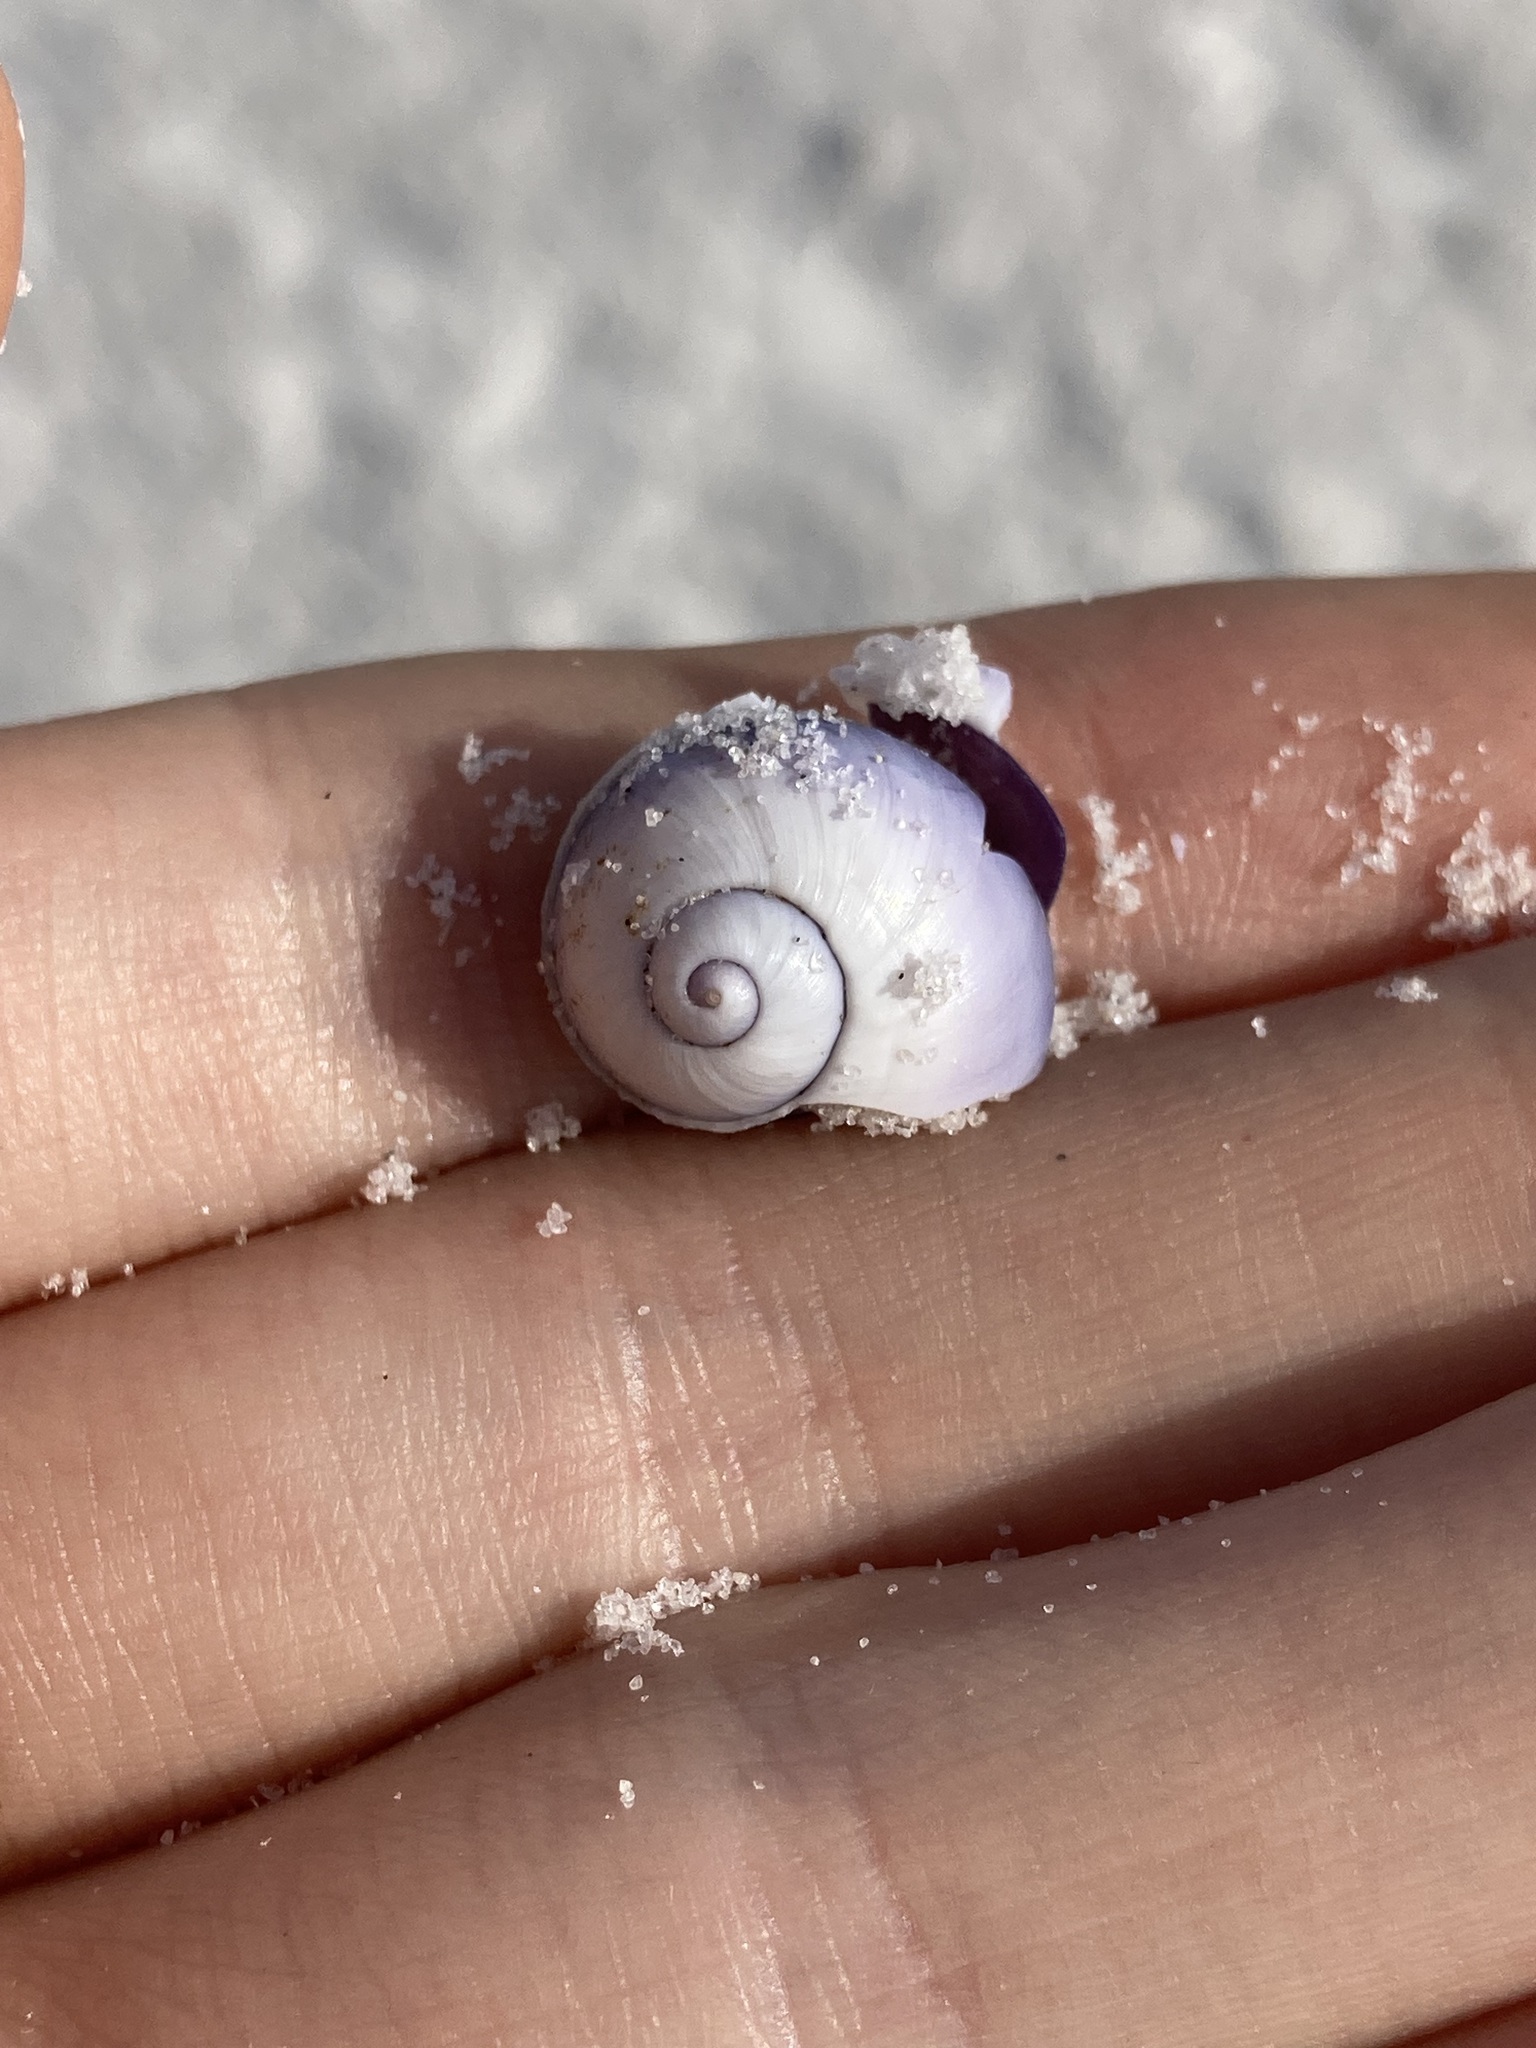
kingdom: Animalia
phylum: Mollusca
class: Gastropoda
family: Epitoniidae
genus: Janthina
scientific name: Janthina janthina
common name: Common janthina
